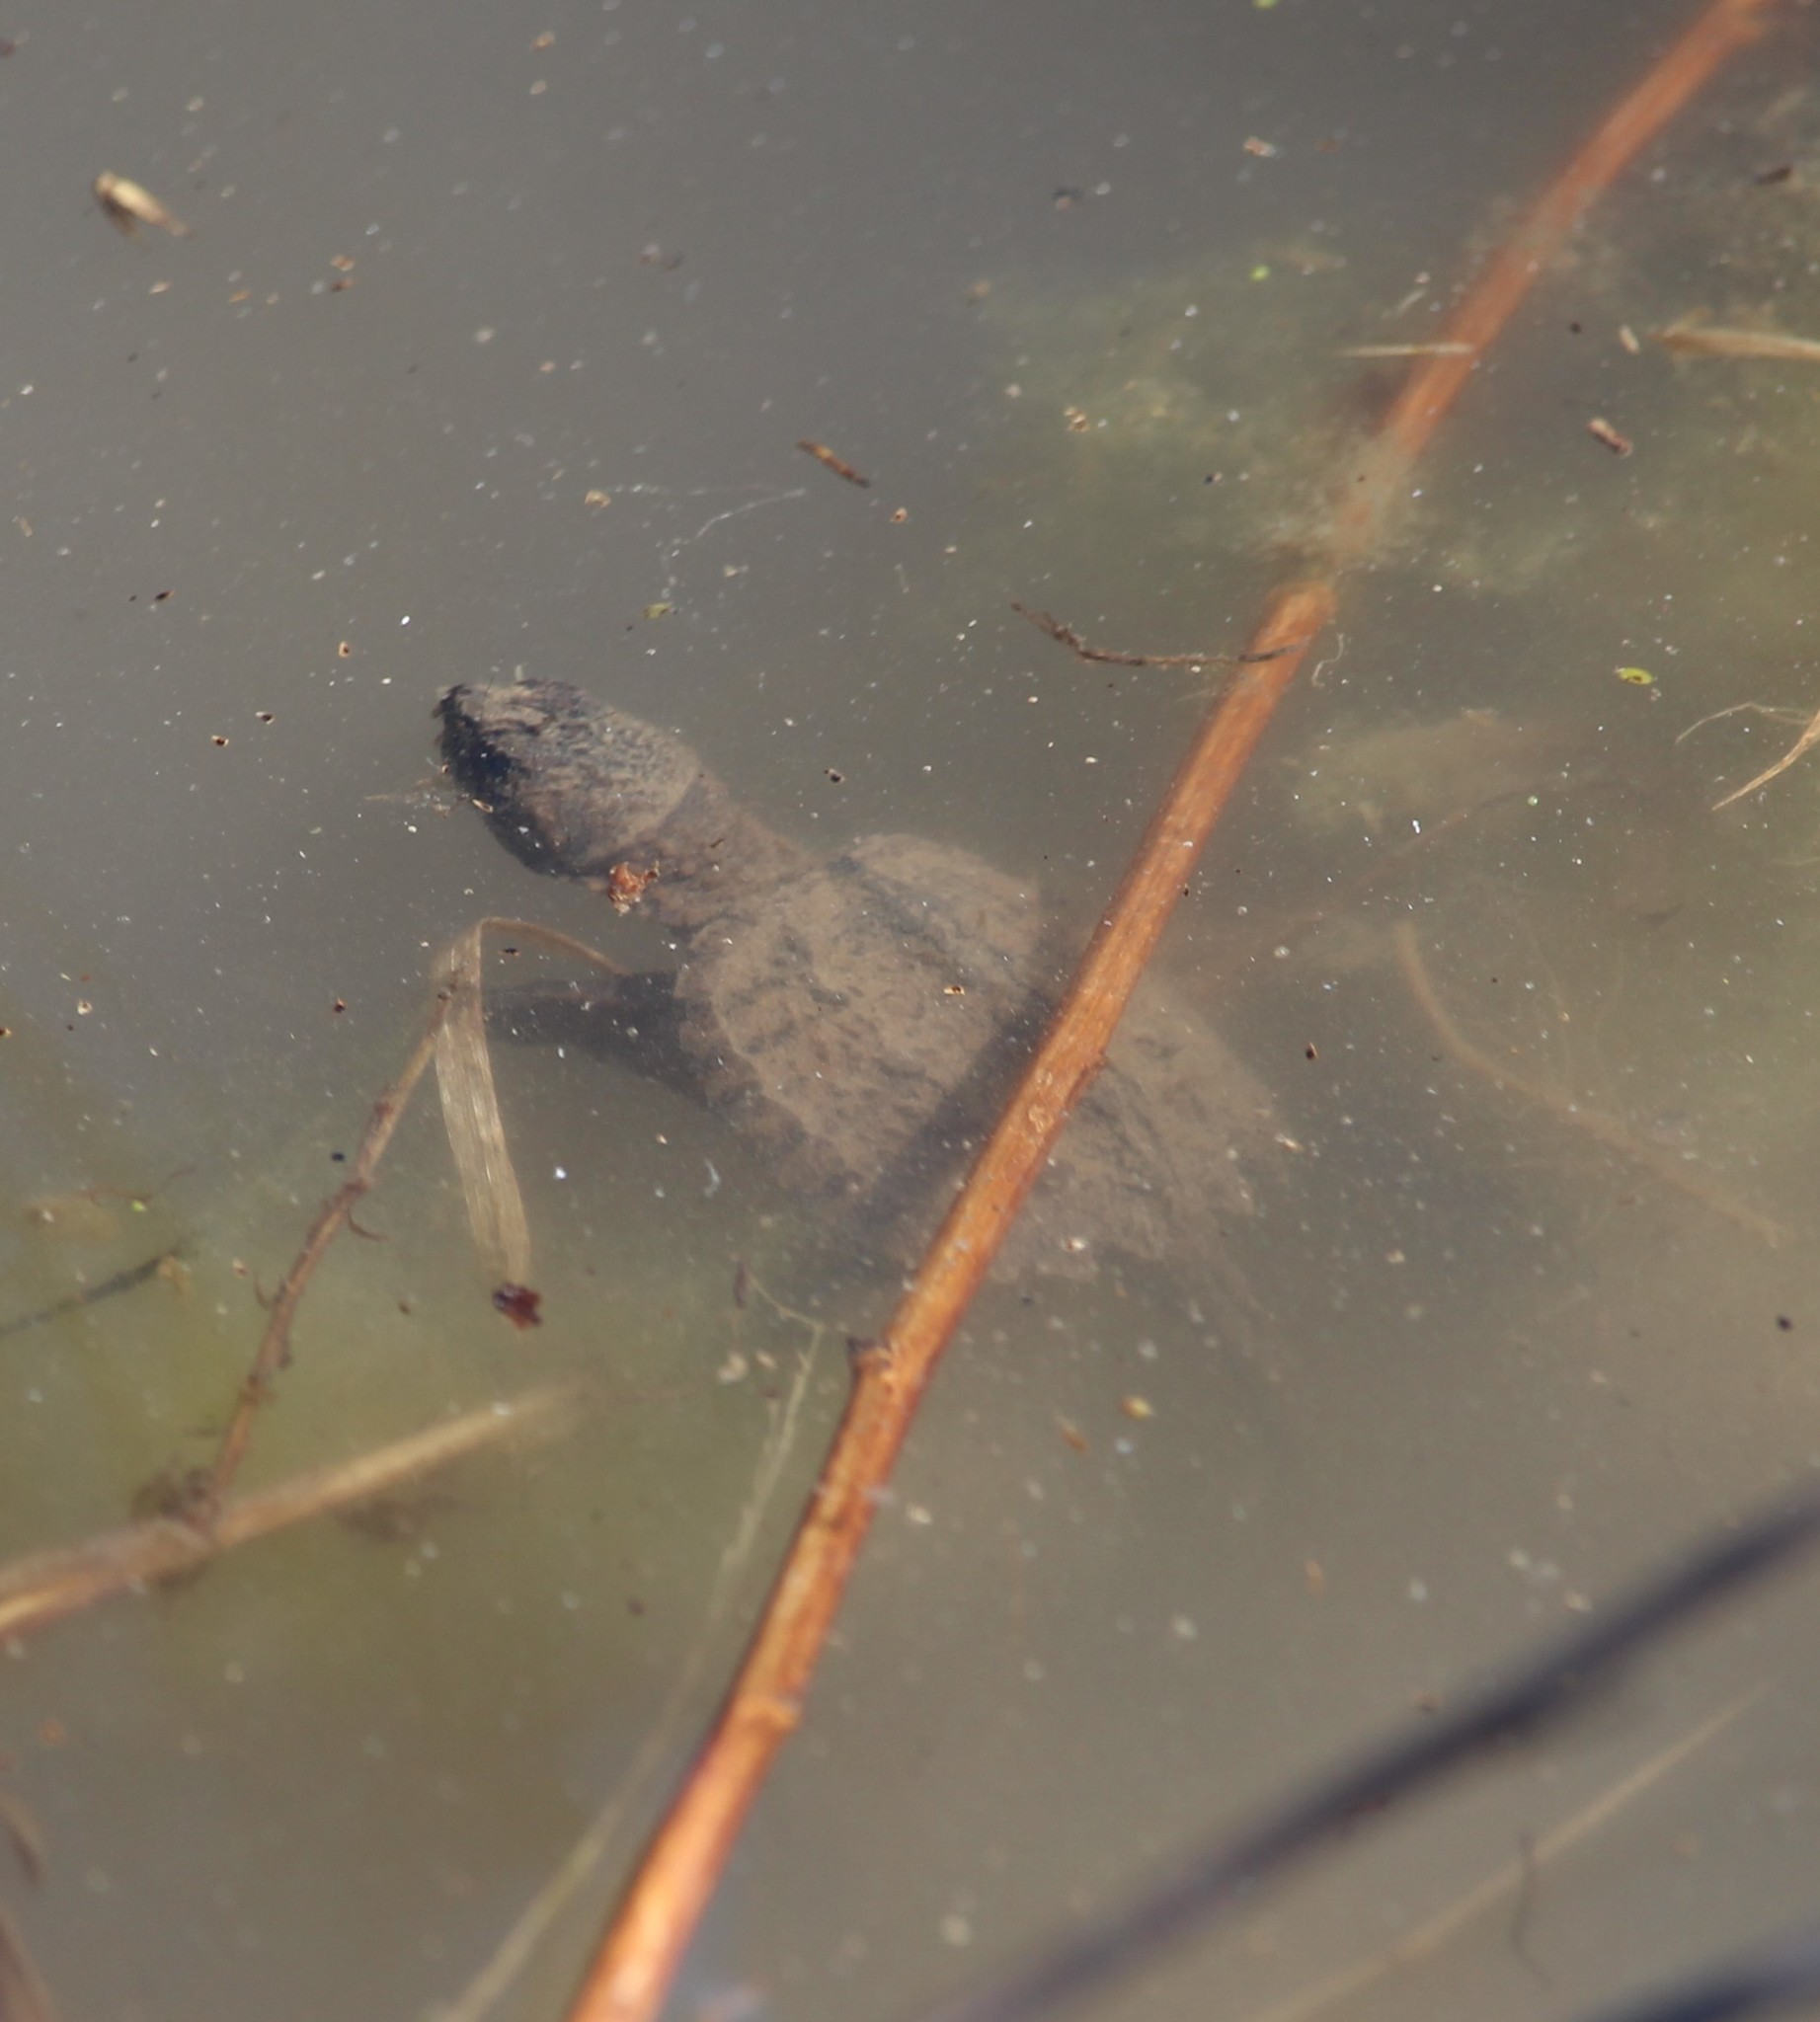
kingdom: Animalia
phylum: Chordata
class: Testudines
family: Chelydridae
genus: Chelydra
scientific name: Chelydra serpentina
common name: Common snapping turtle
